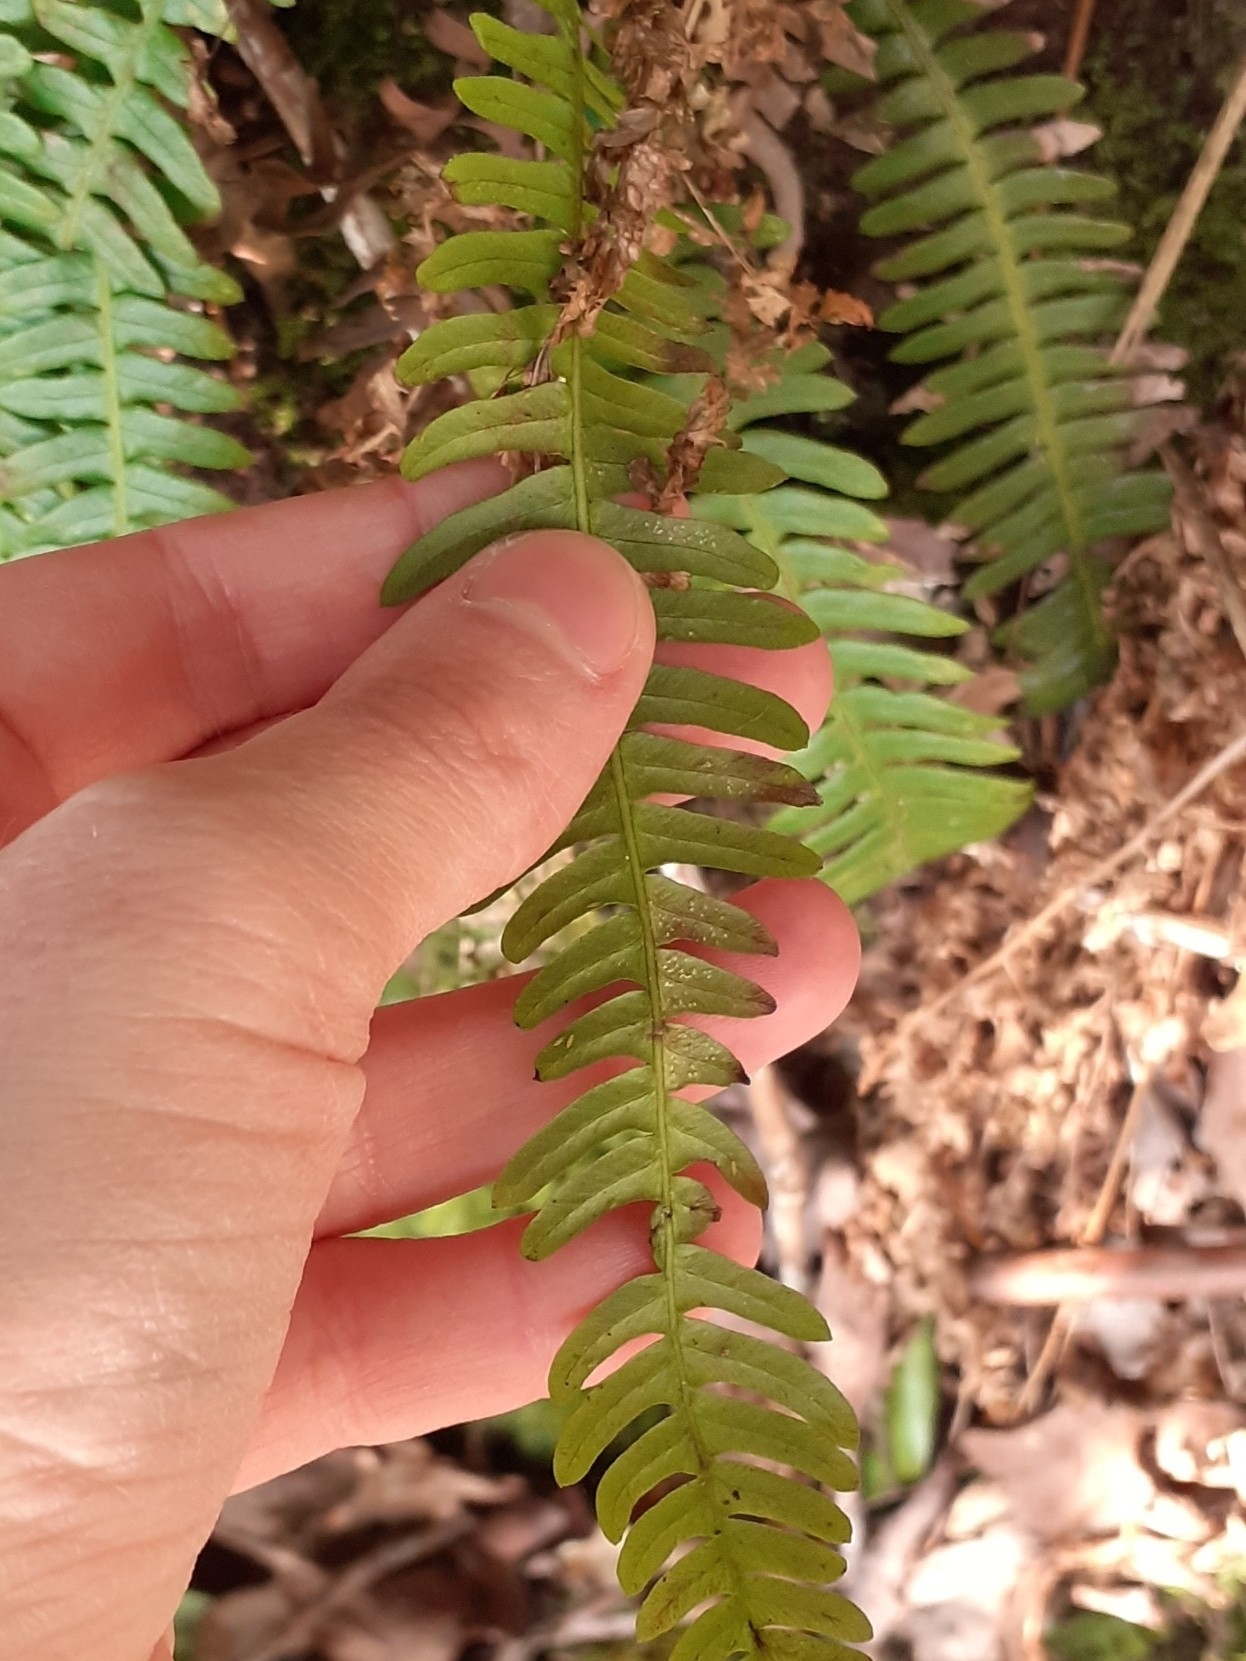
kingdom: Plantae
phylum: Tracheophyta
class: Polypodiopsida
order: Polypodiales
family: Blechnaceae
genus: Struthiopteris
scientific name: Struthiopteris spicant
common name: Deer fern
